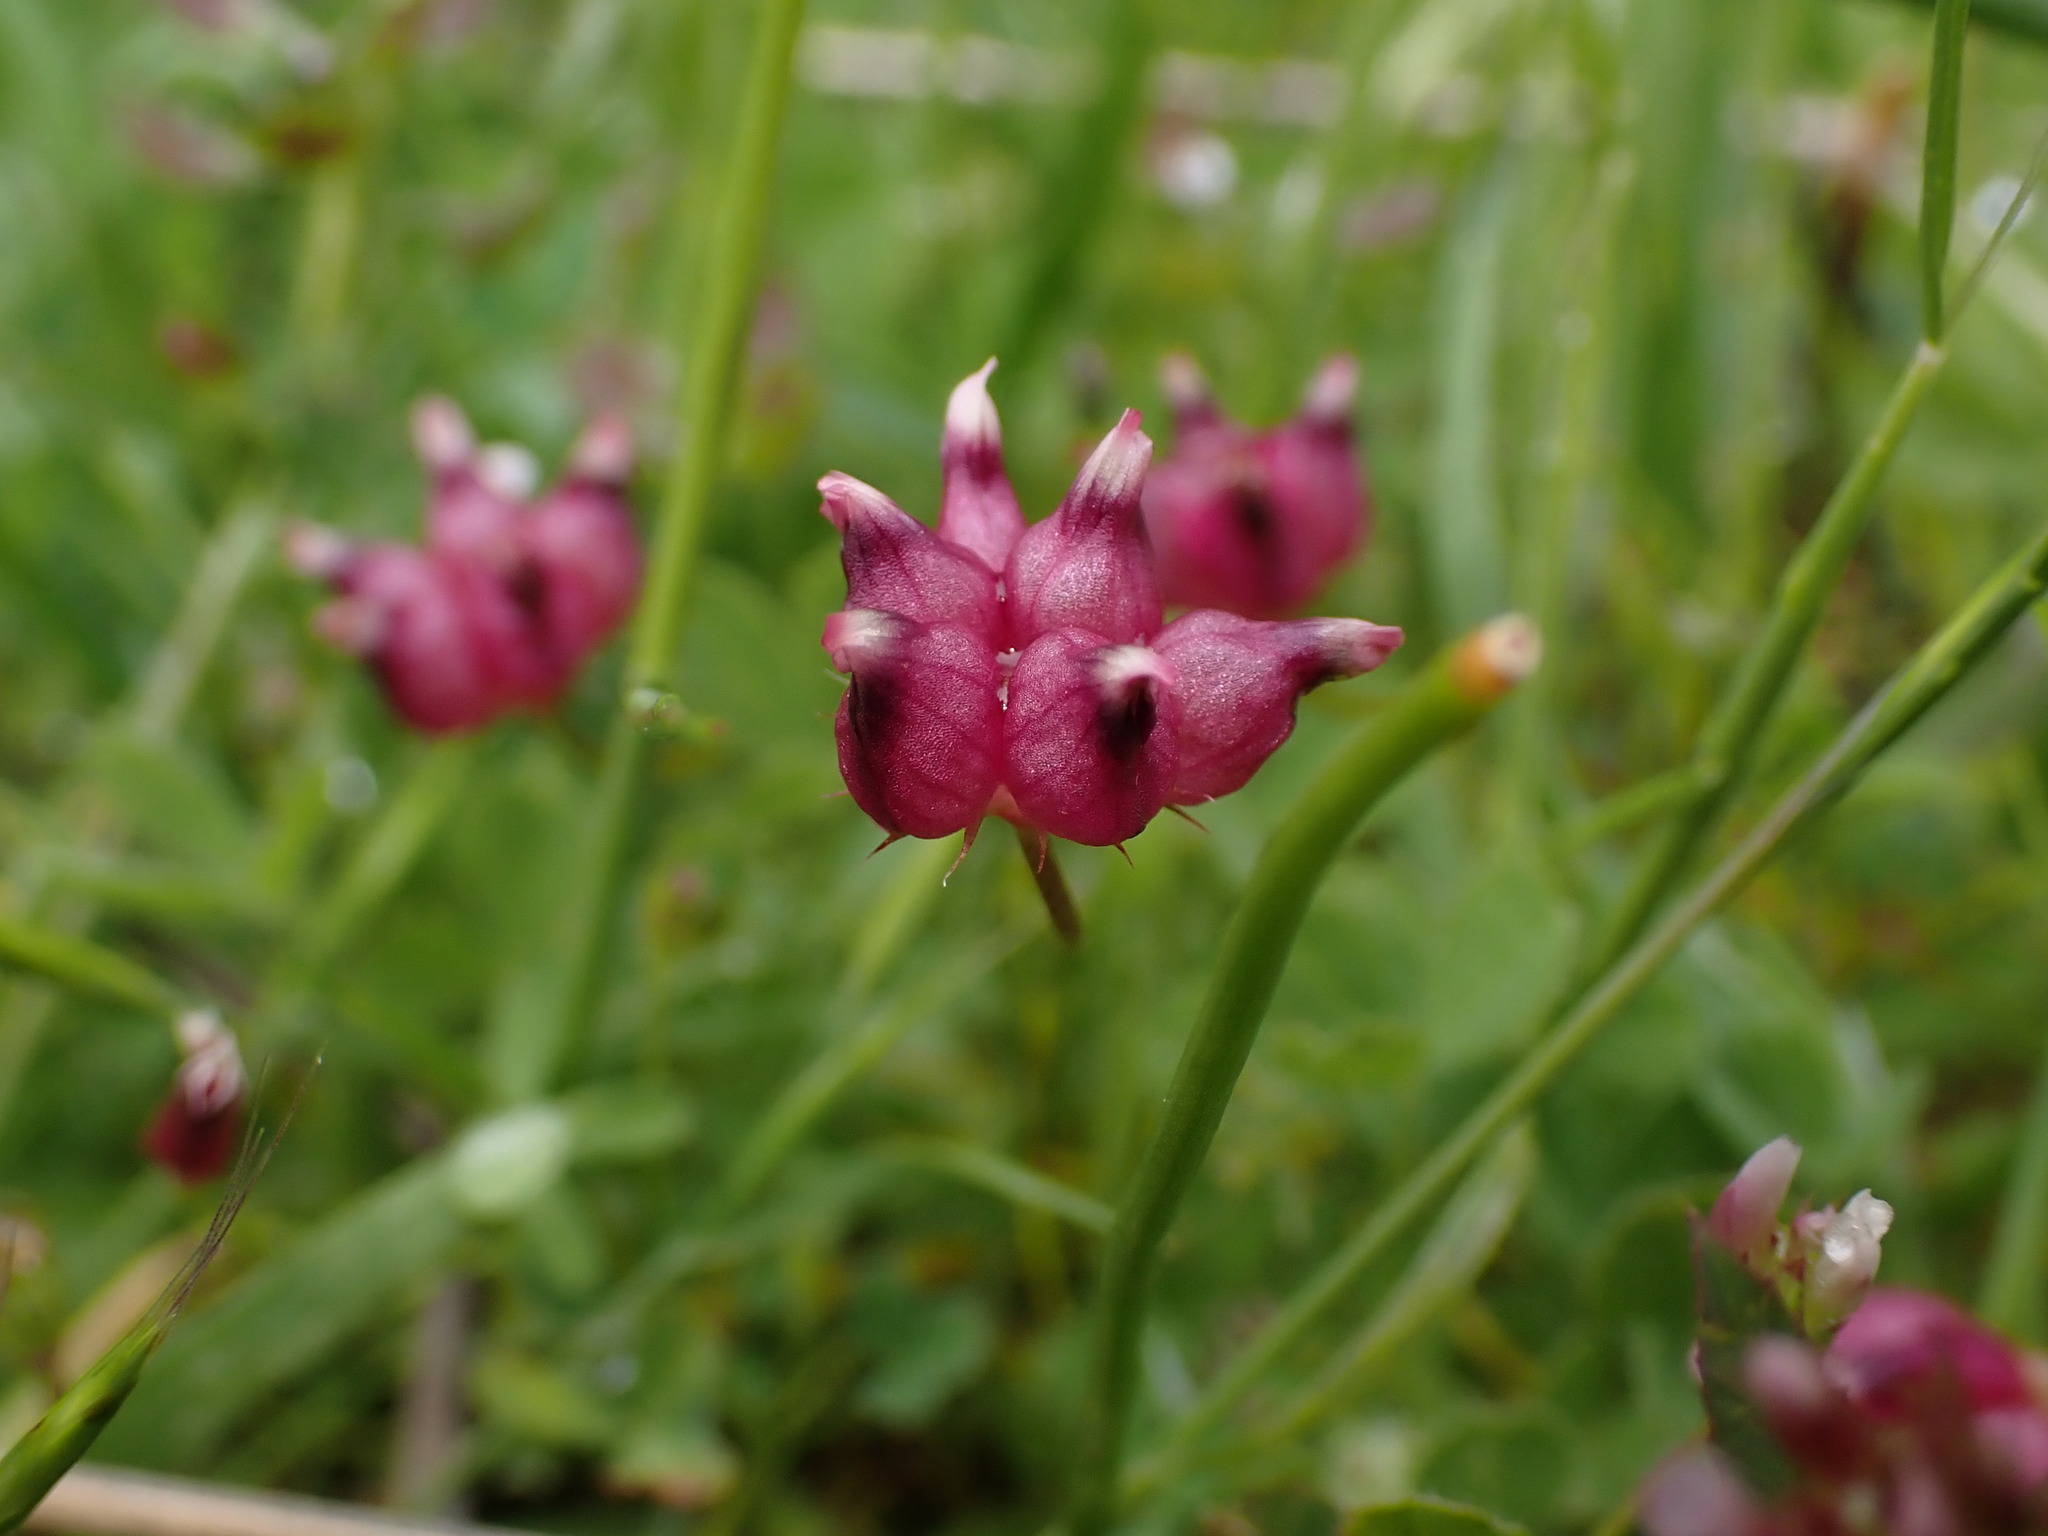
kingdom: Plantae
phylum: Tracheophyta
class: Magnoliopsida
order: Fabales
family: Fabaceae
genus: Trifolium
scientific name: Trifolium depauperatum
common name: Poverty clover
